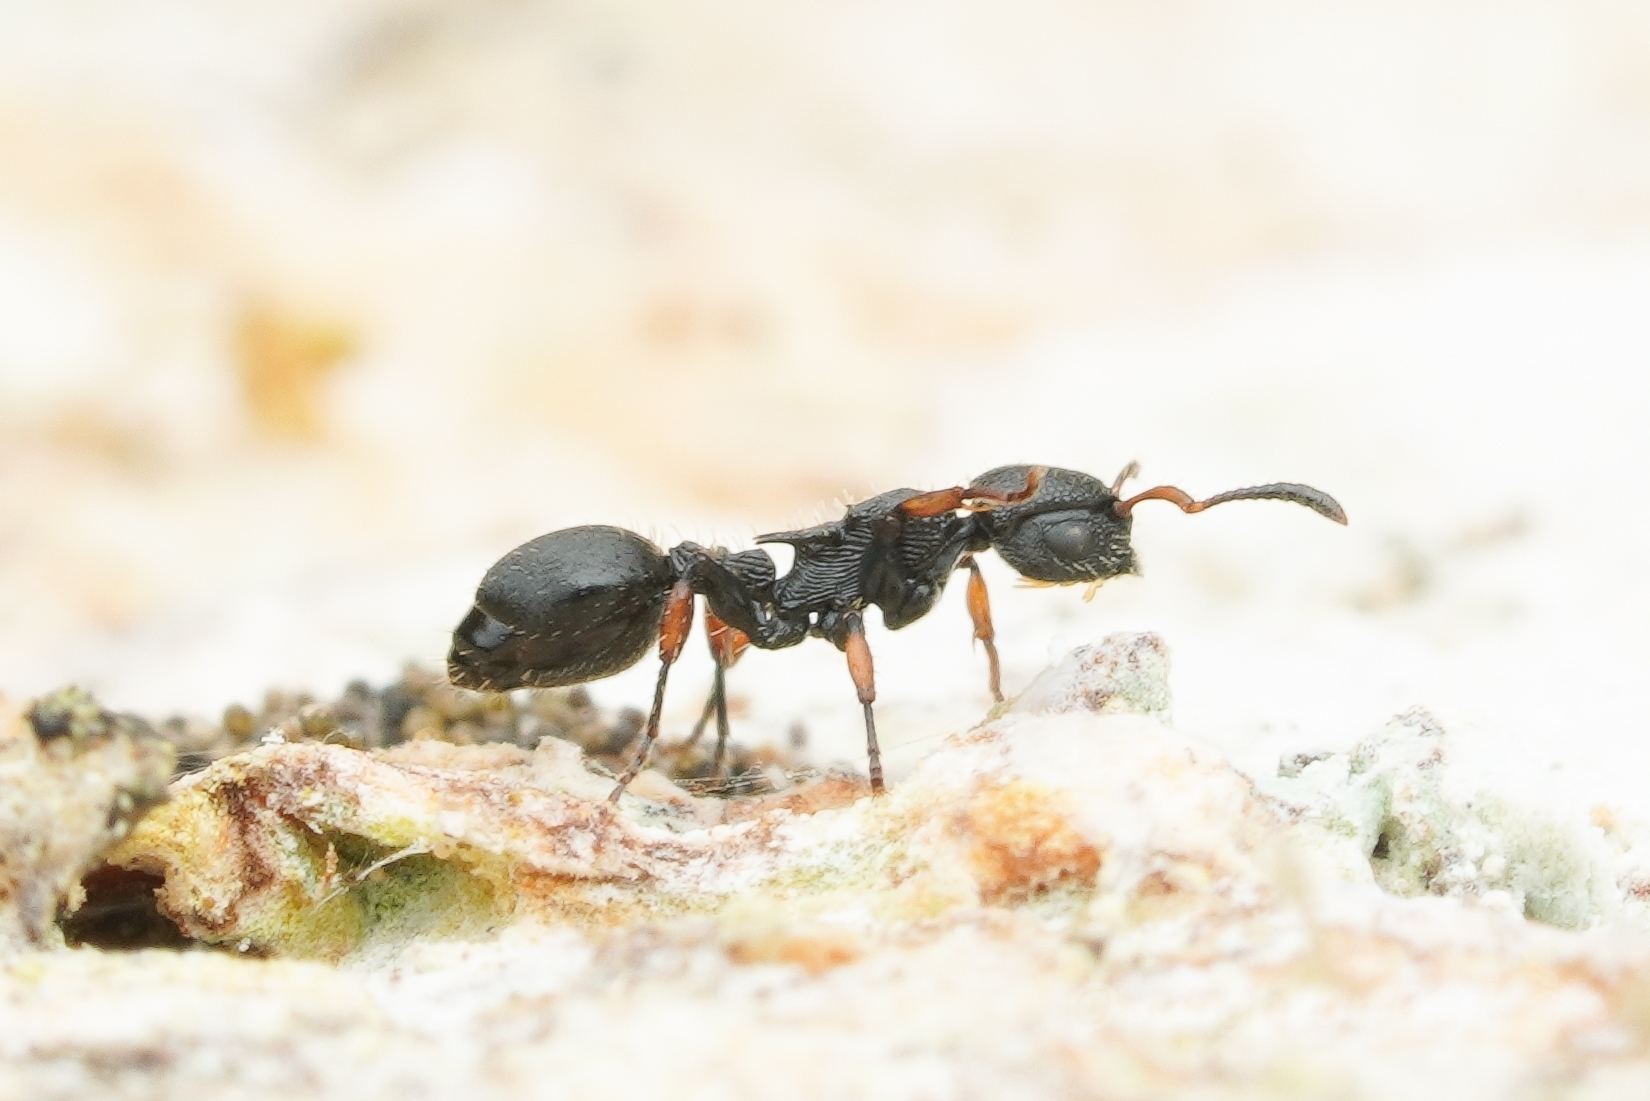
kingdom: Animalia
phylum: Arthropoda
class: Insecta
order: Hymenoptera
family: Formicidae
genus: Procryptocerus
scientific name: Procryptocerus pictipes
